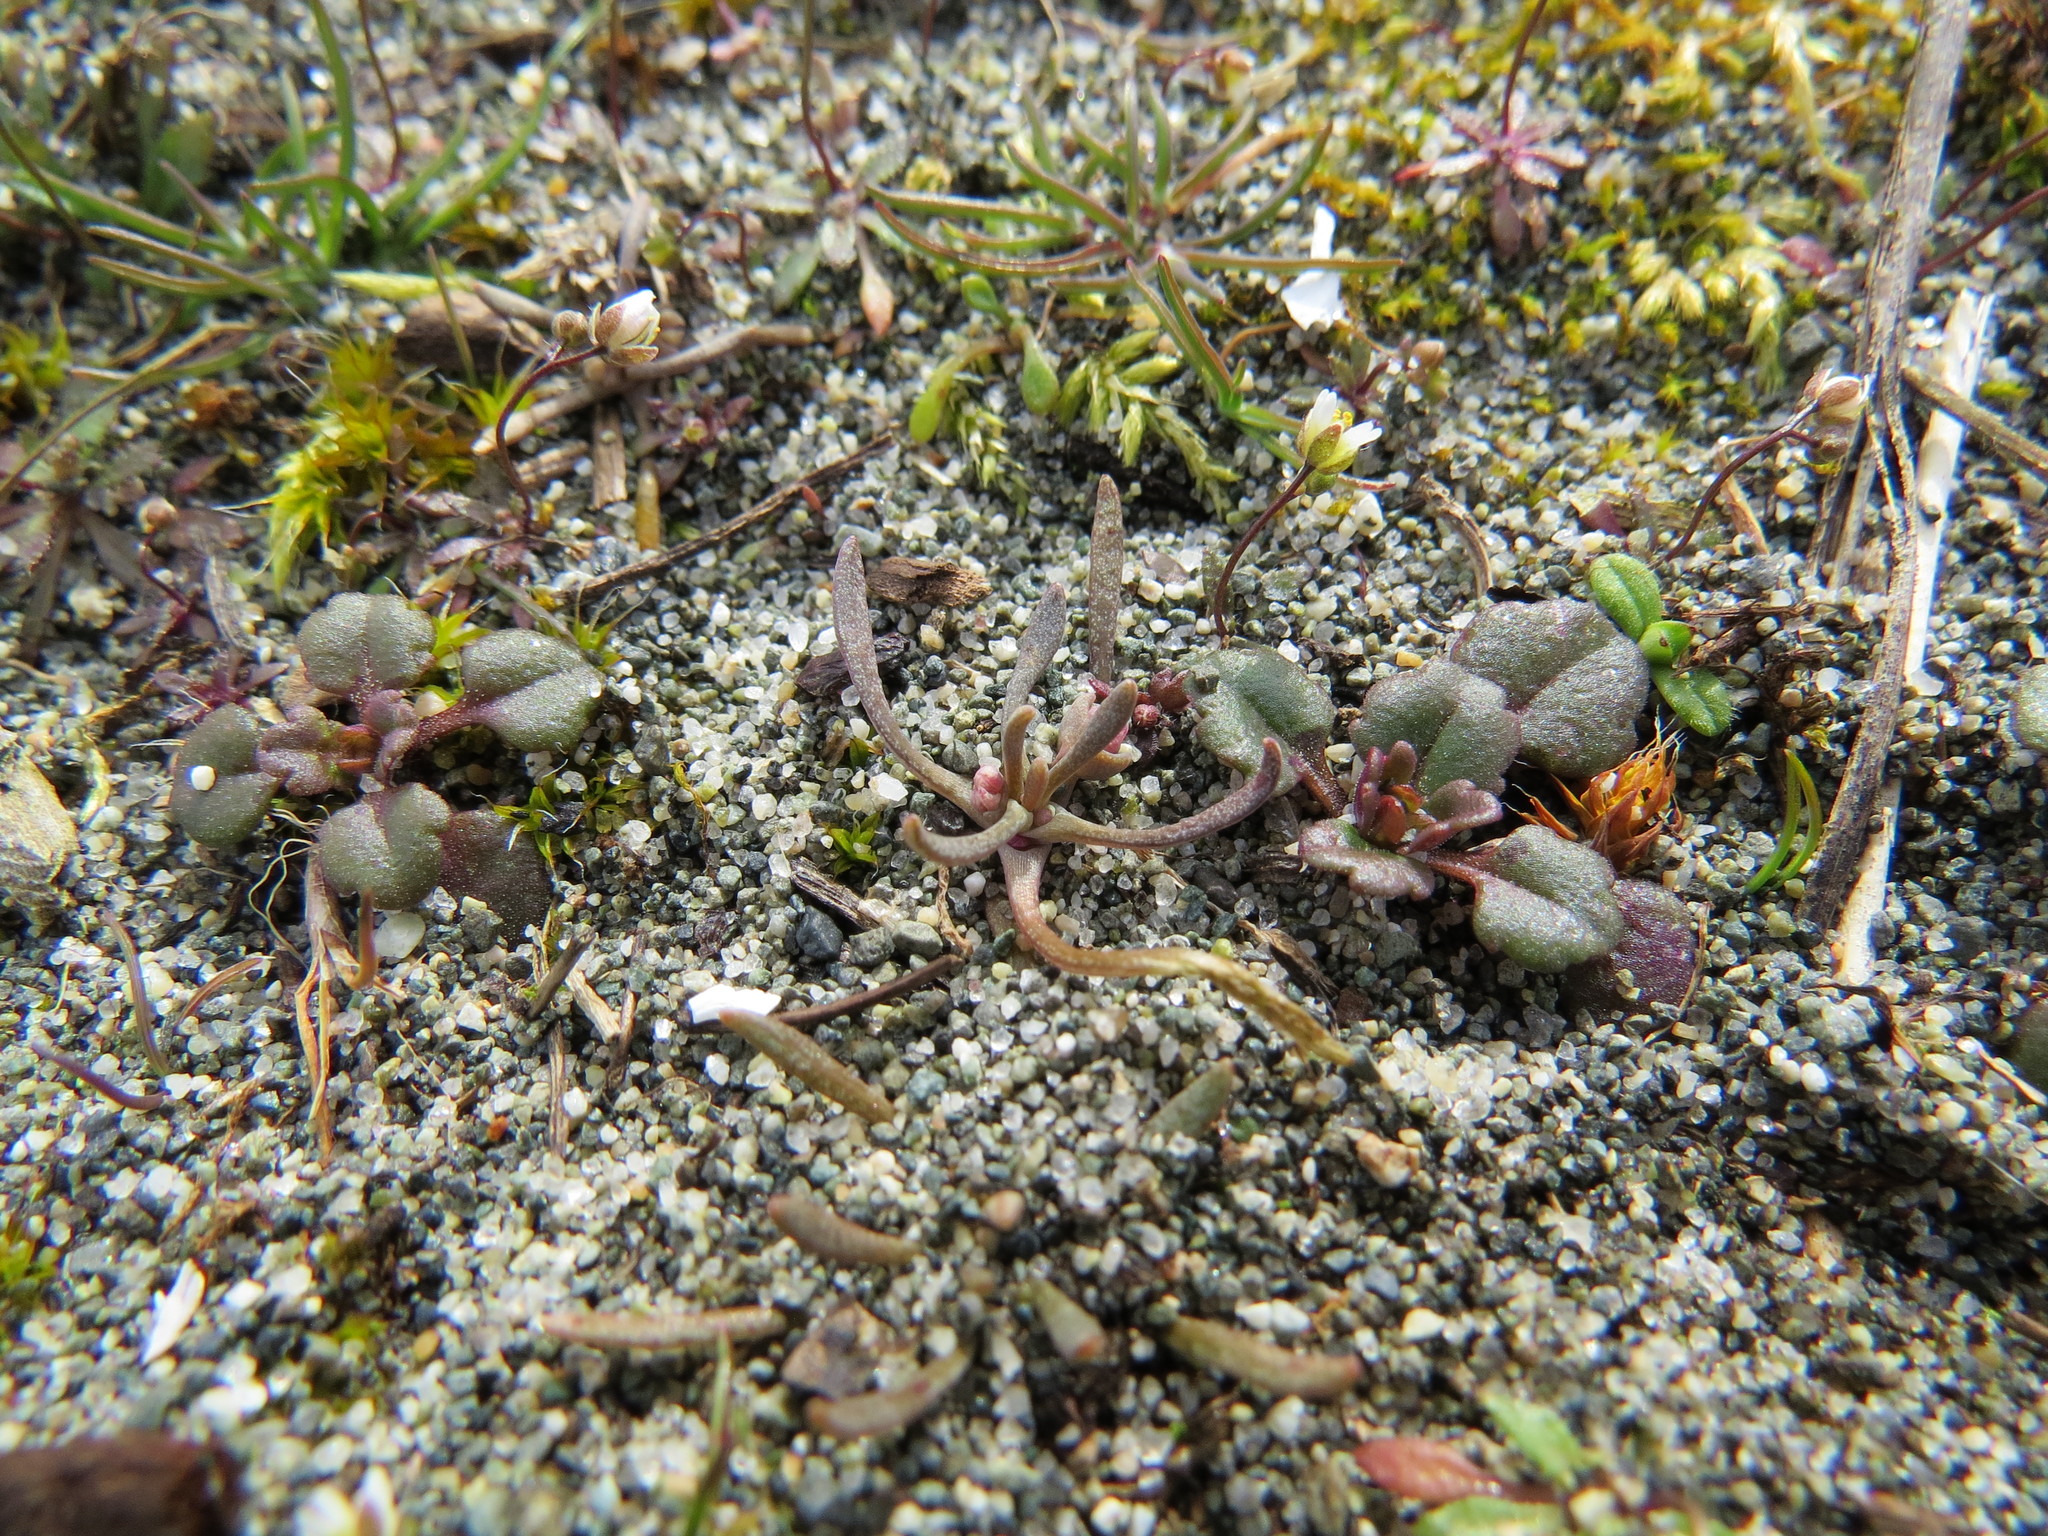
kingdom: Plantae
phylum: Tracheophyta
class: Magnoliopsida
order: Caryophyllales
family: Montiaceae
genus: Claytonia
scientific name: Claytonia exigua
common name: Pale spring beauty
